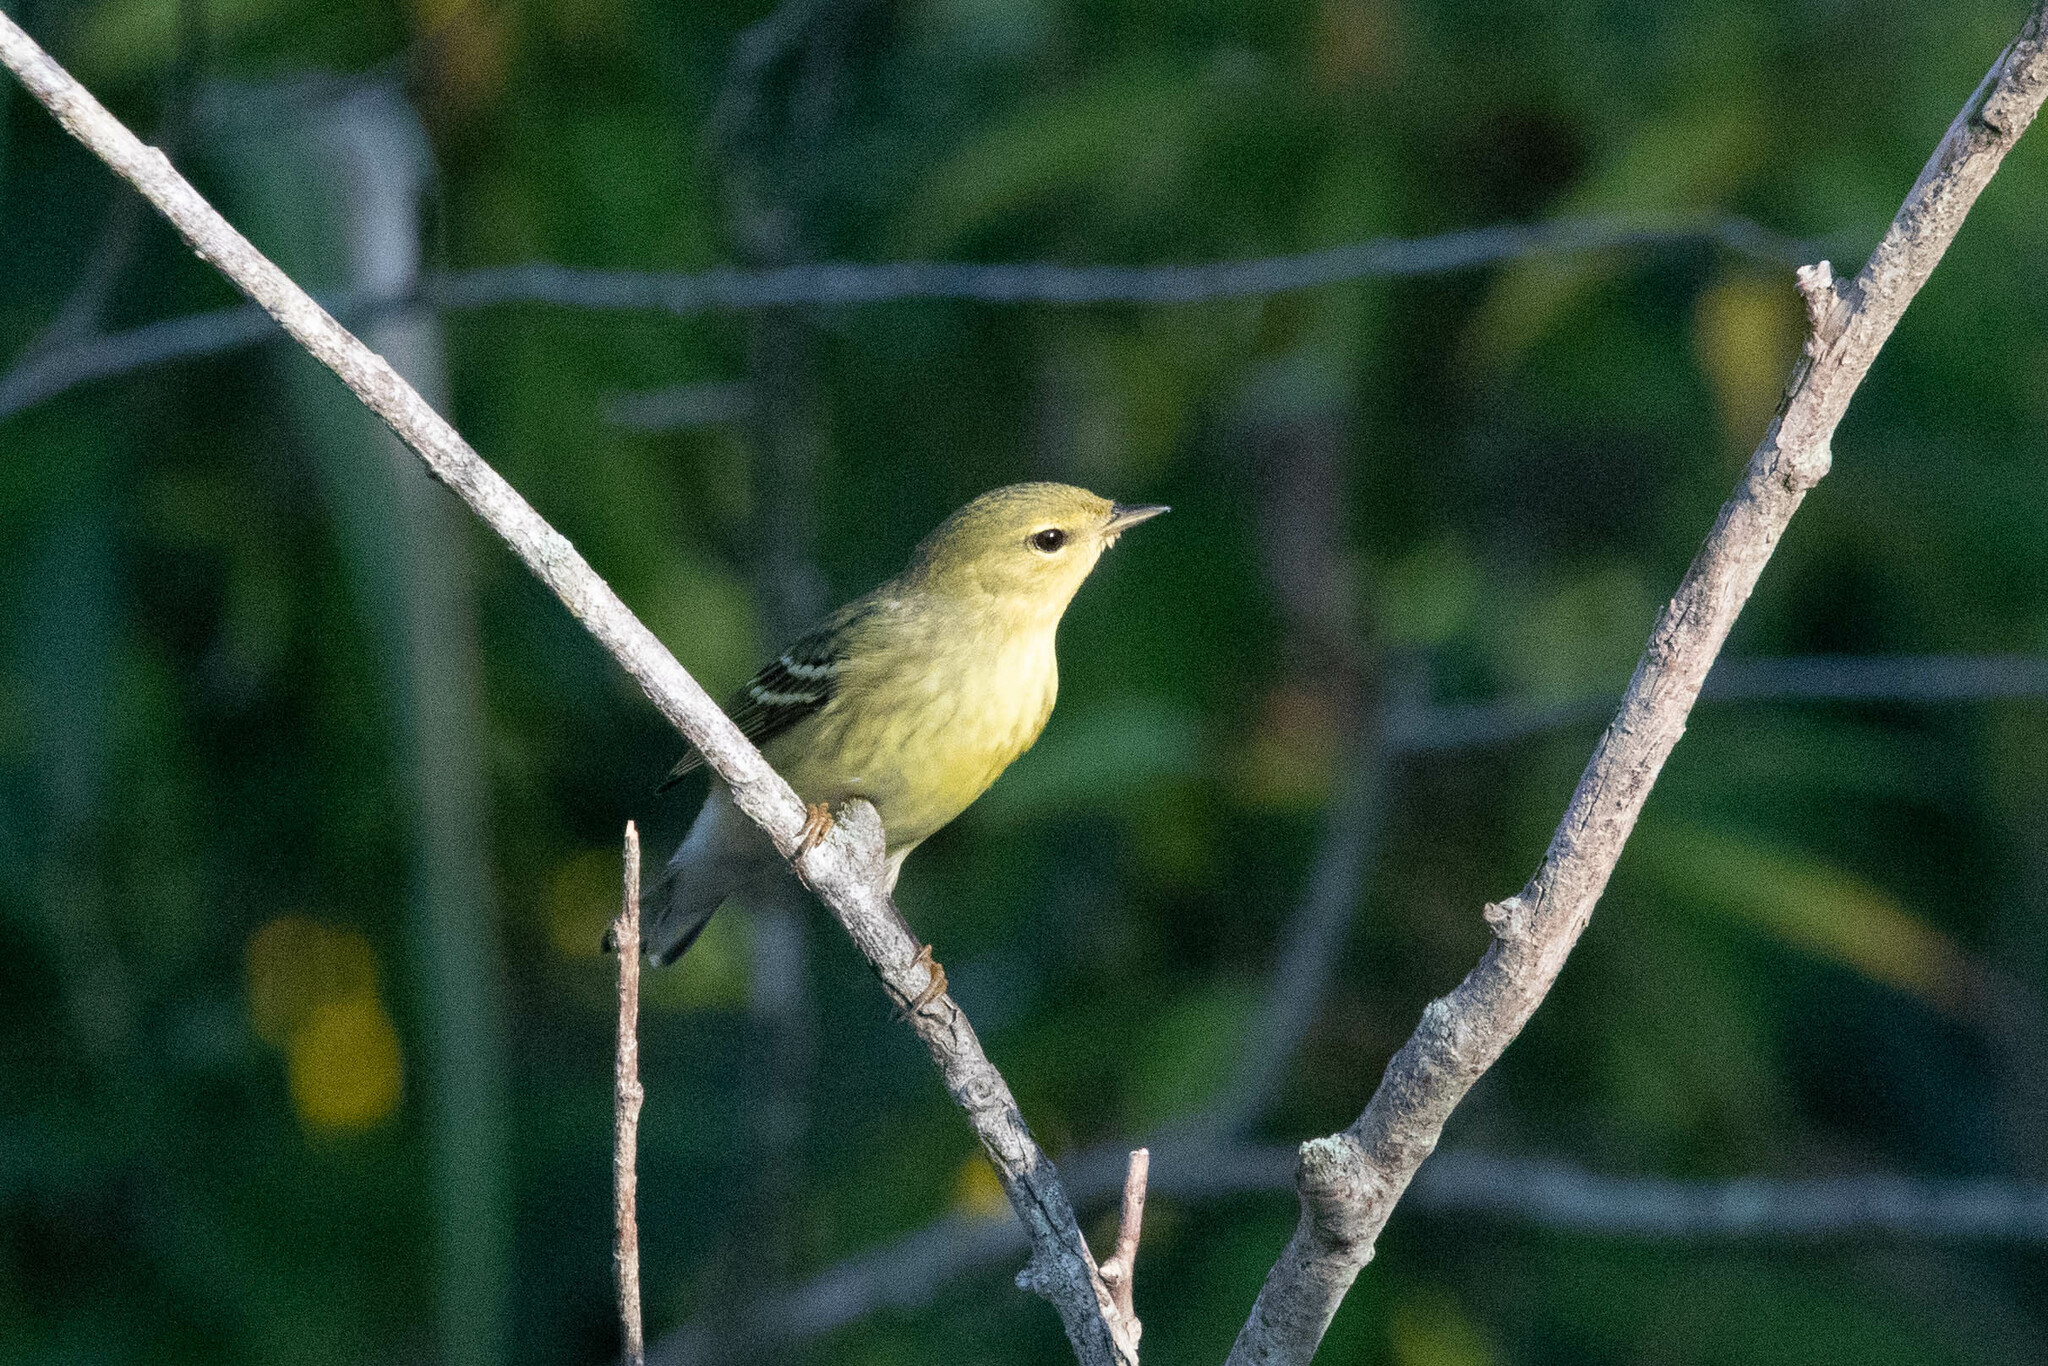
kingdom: Animalia
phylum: Chordata
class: Aves
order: Passeriformes
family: Parulidae
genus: Setophaga
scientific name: Setophaga striata
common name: Blackpoll warbler
